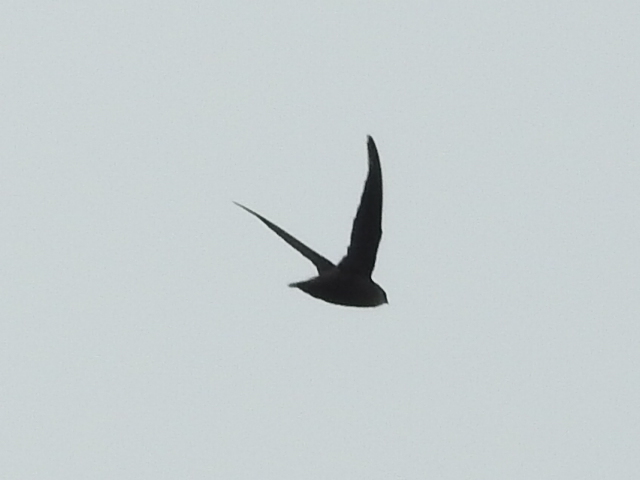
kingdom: Animalia
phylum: Chordata
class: Aves
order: Apodiformes
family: Apodidae
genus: Chaetura
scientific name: Chaetura pelagica
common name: Chimney swift
